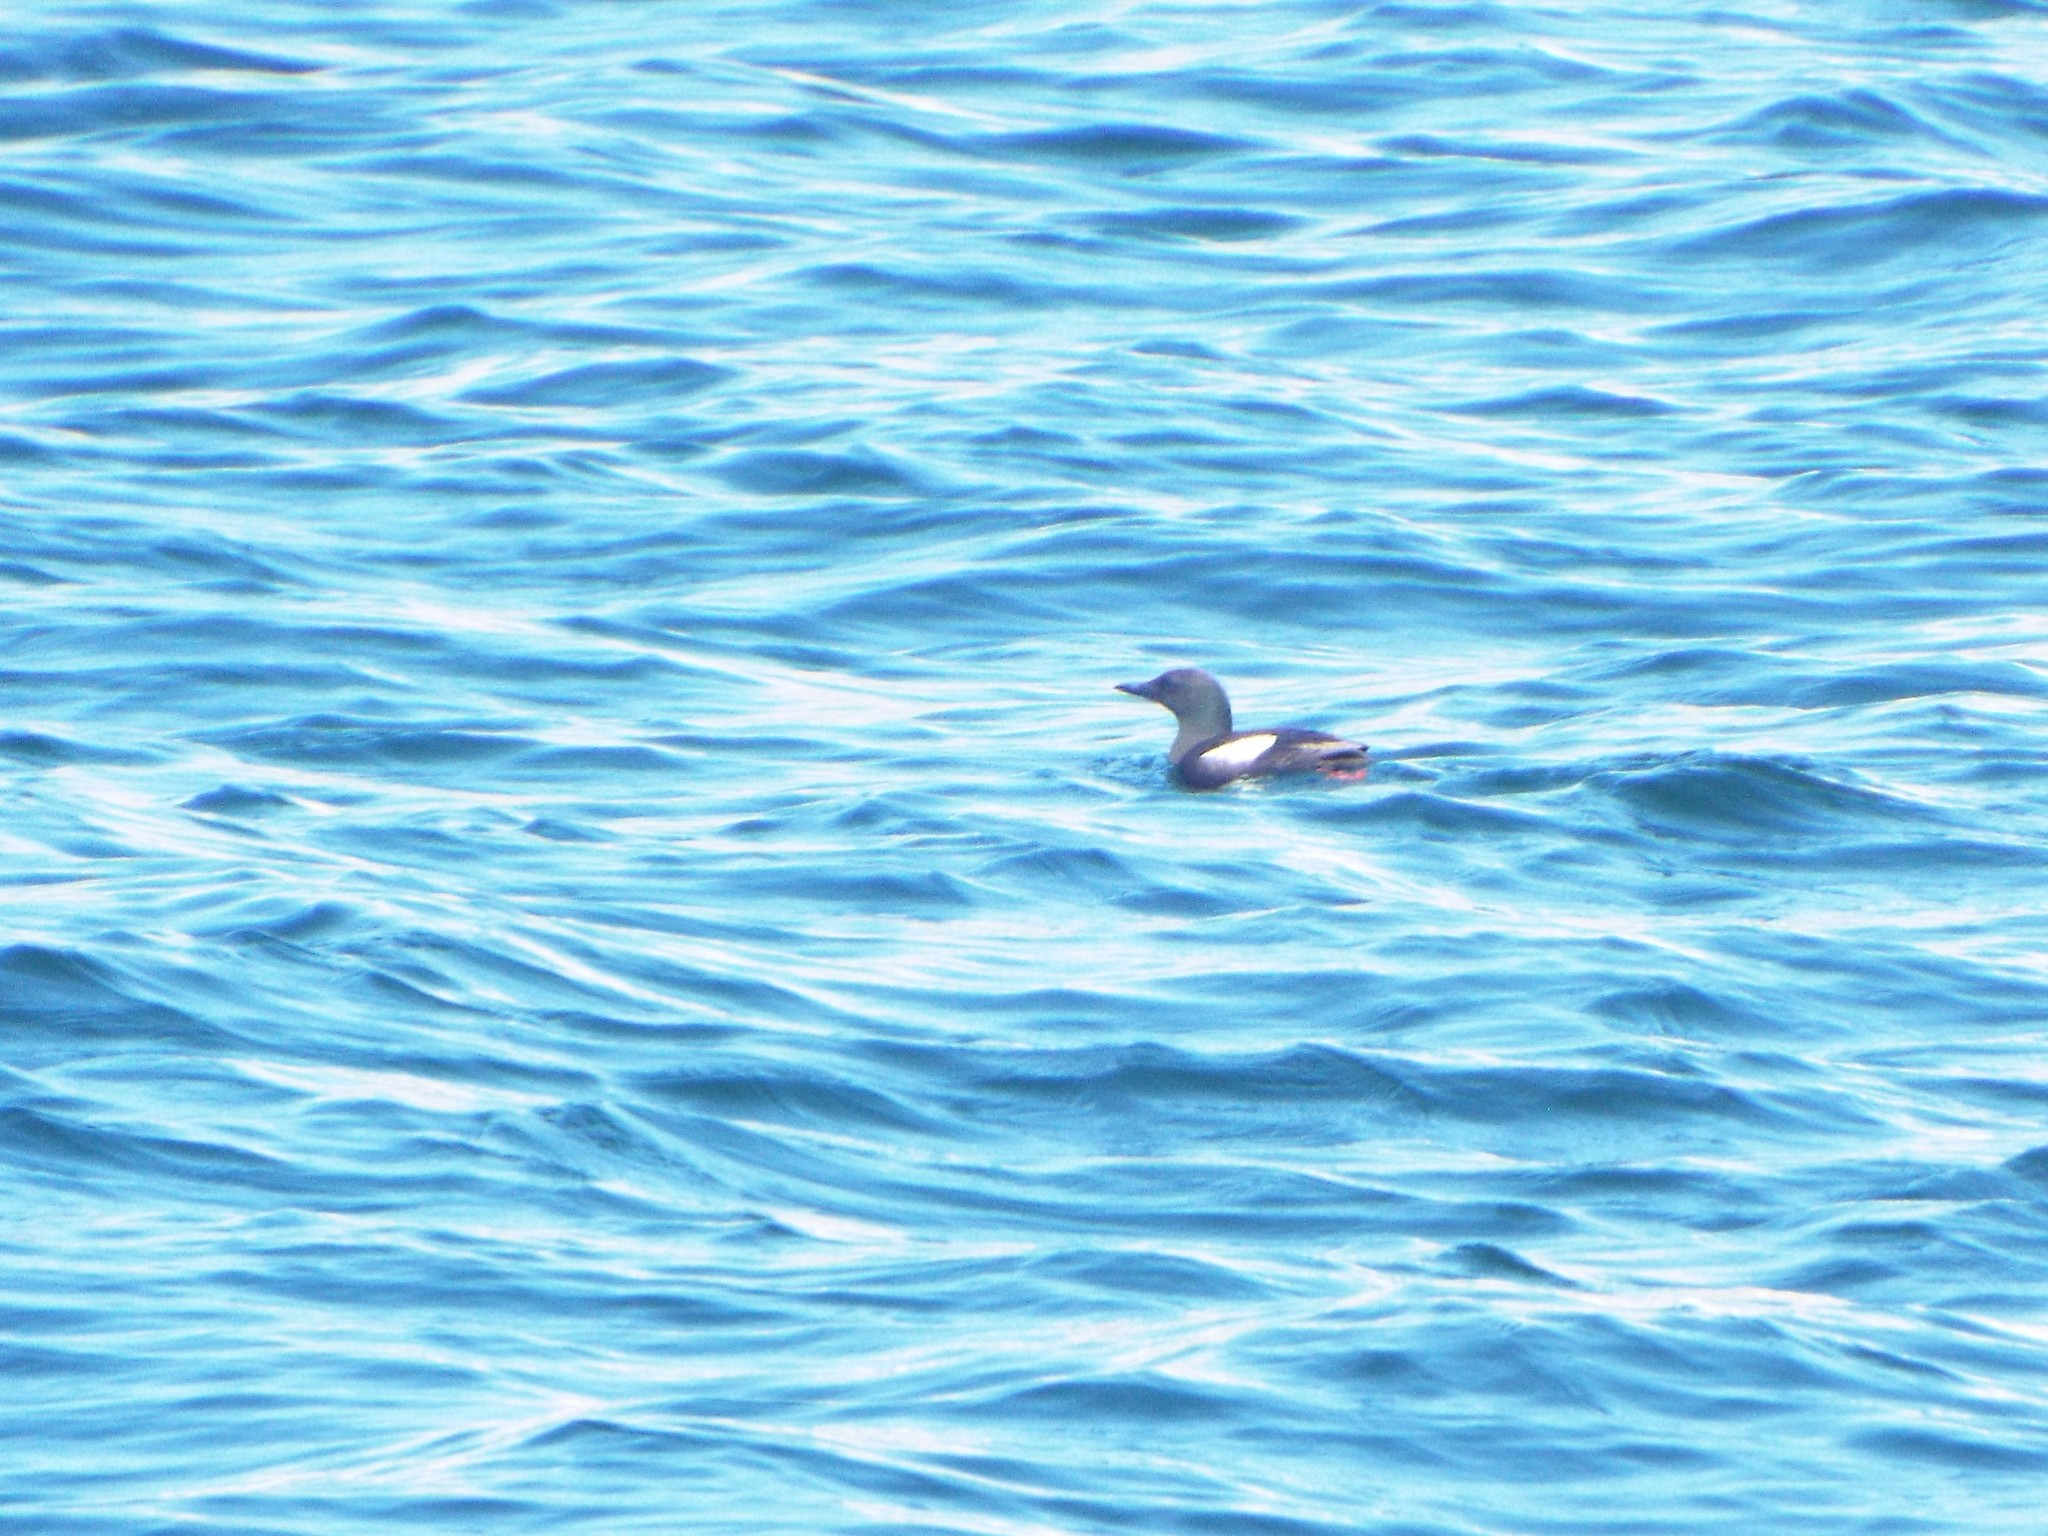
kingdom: Animalia
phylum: Chordata
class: Aves
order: Charadriiformes
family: Alcidae
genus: Cepphus
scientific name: Cepphus grylle
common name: Black guillemot
